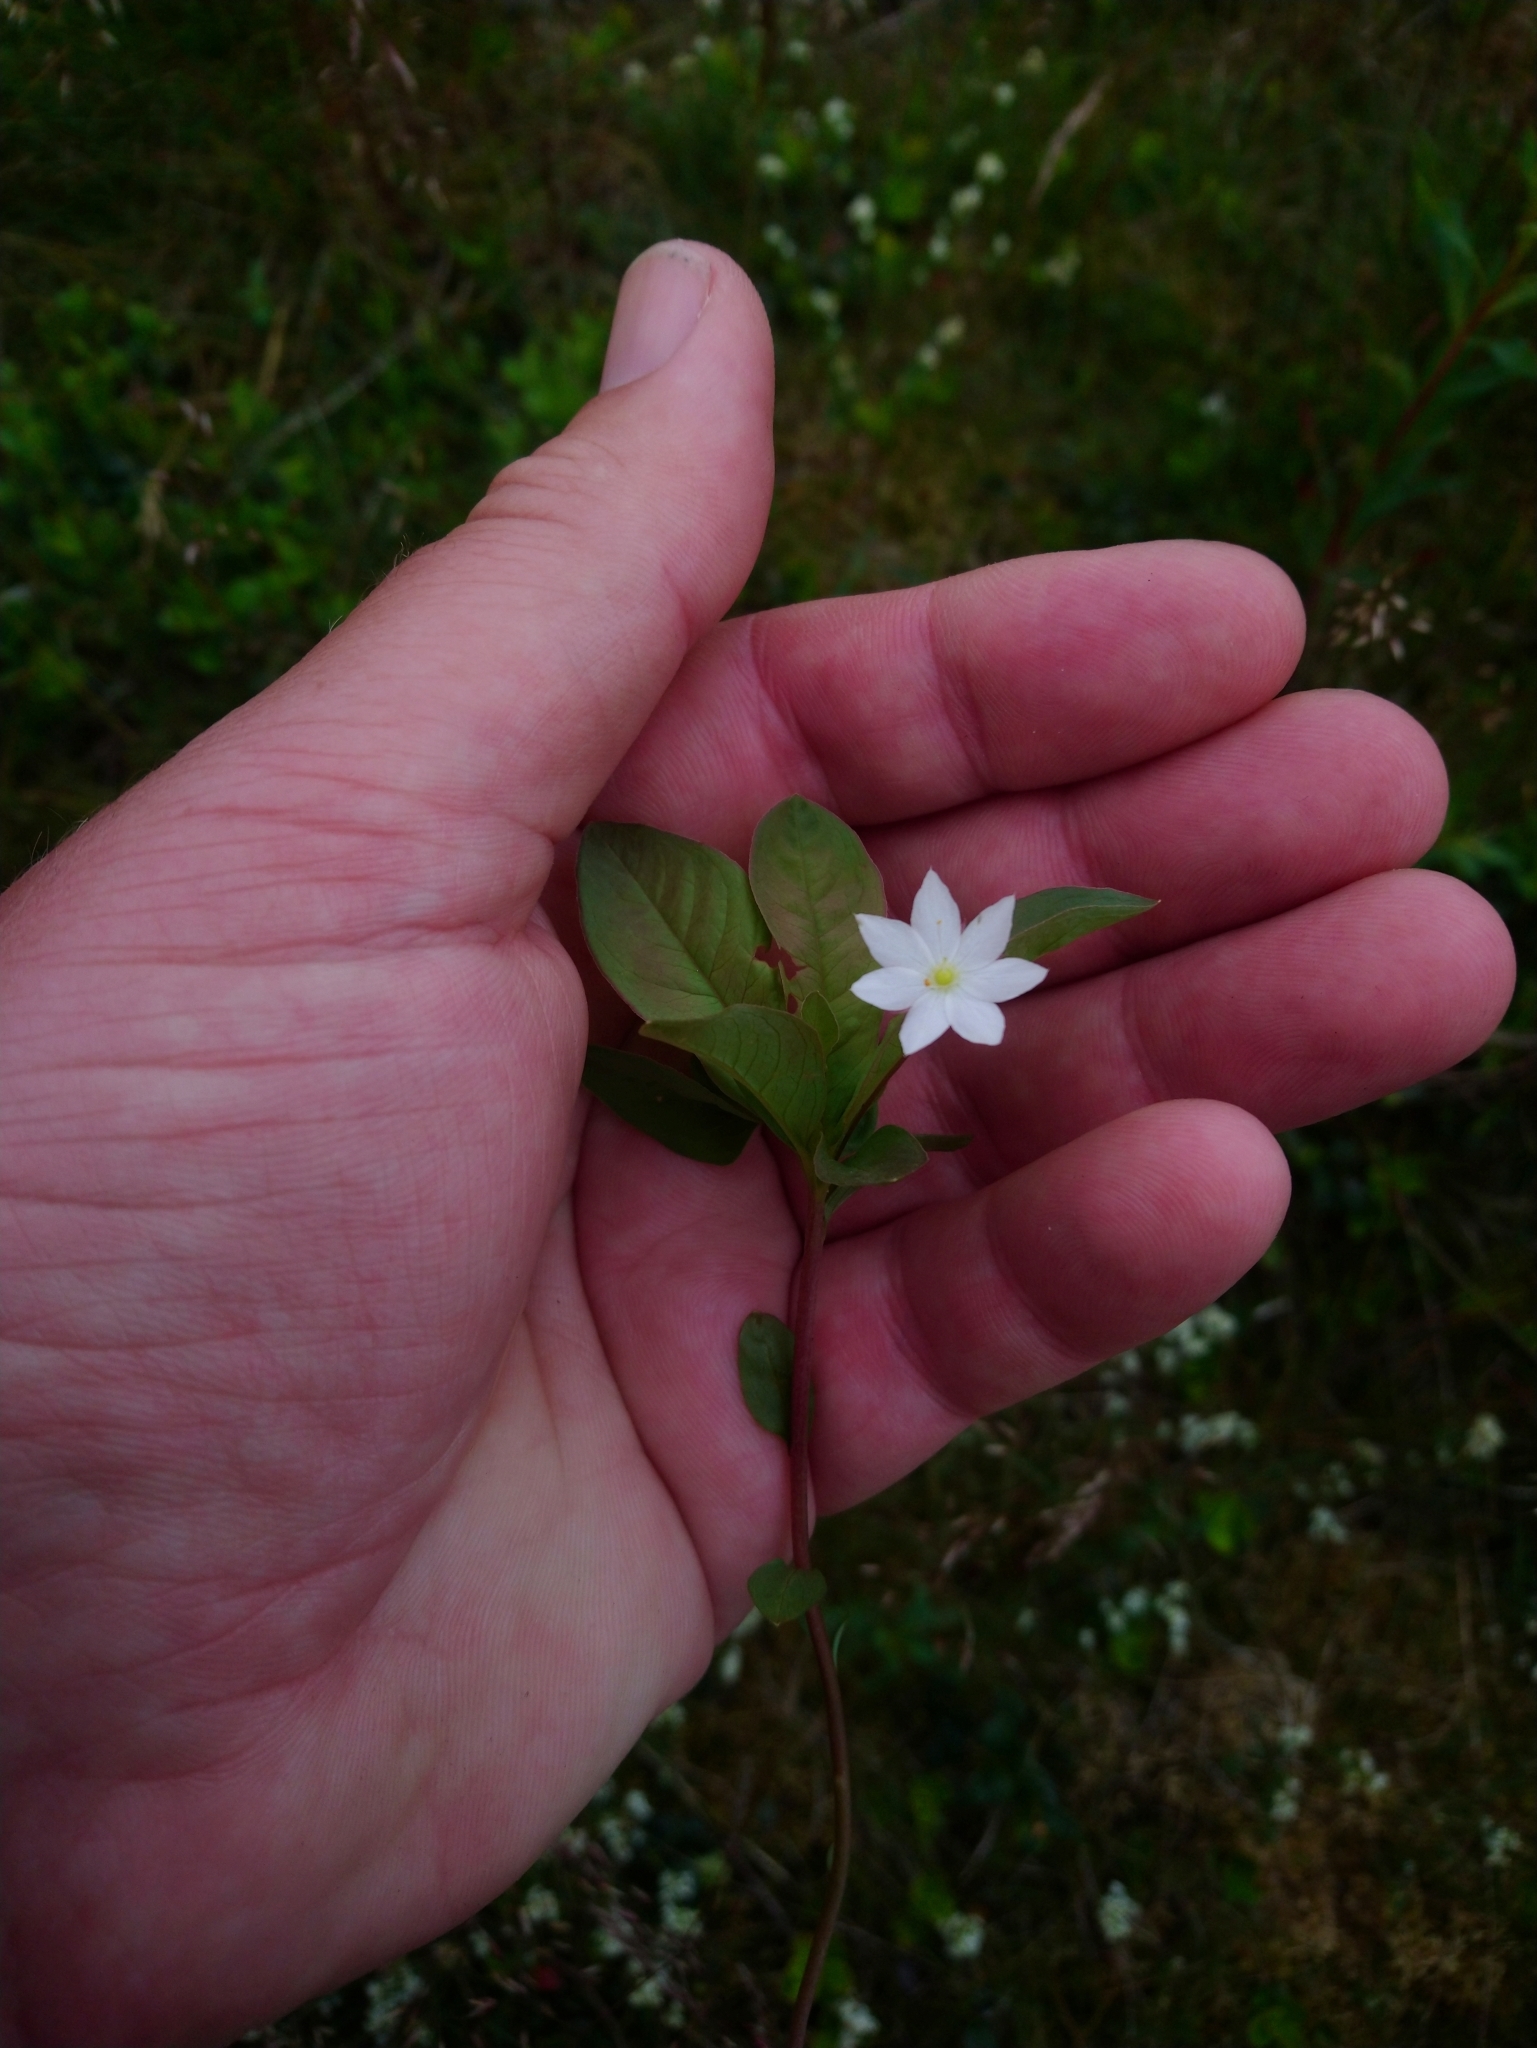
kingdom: Plantae
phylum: Tracheophyta
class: Magnoliopsida
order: Ericales
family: Primulaceae
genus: Lysimachia
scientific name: Lysimachia europaea
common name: Arctic starflower
